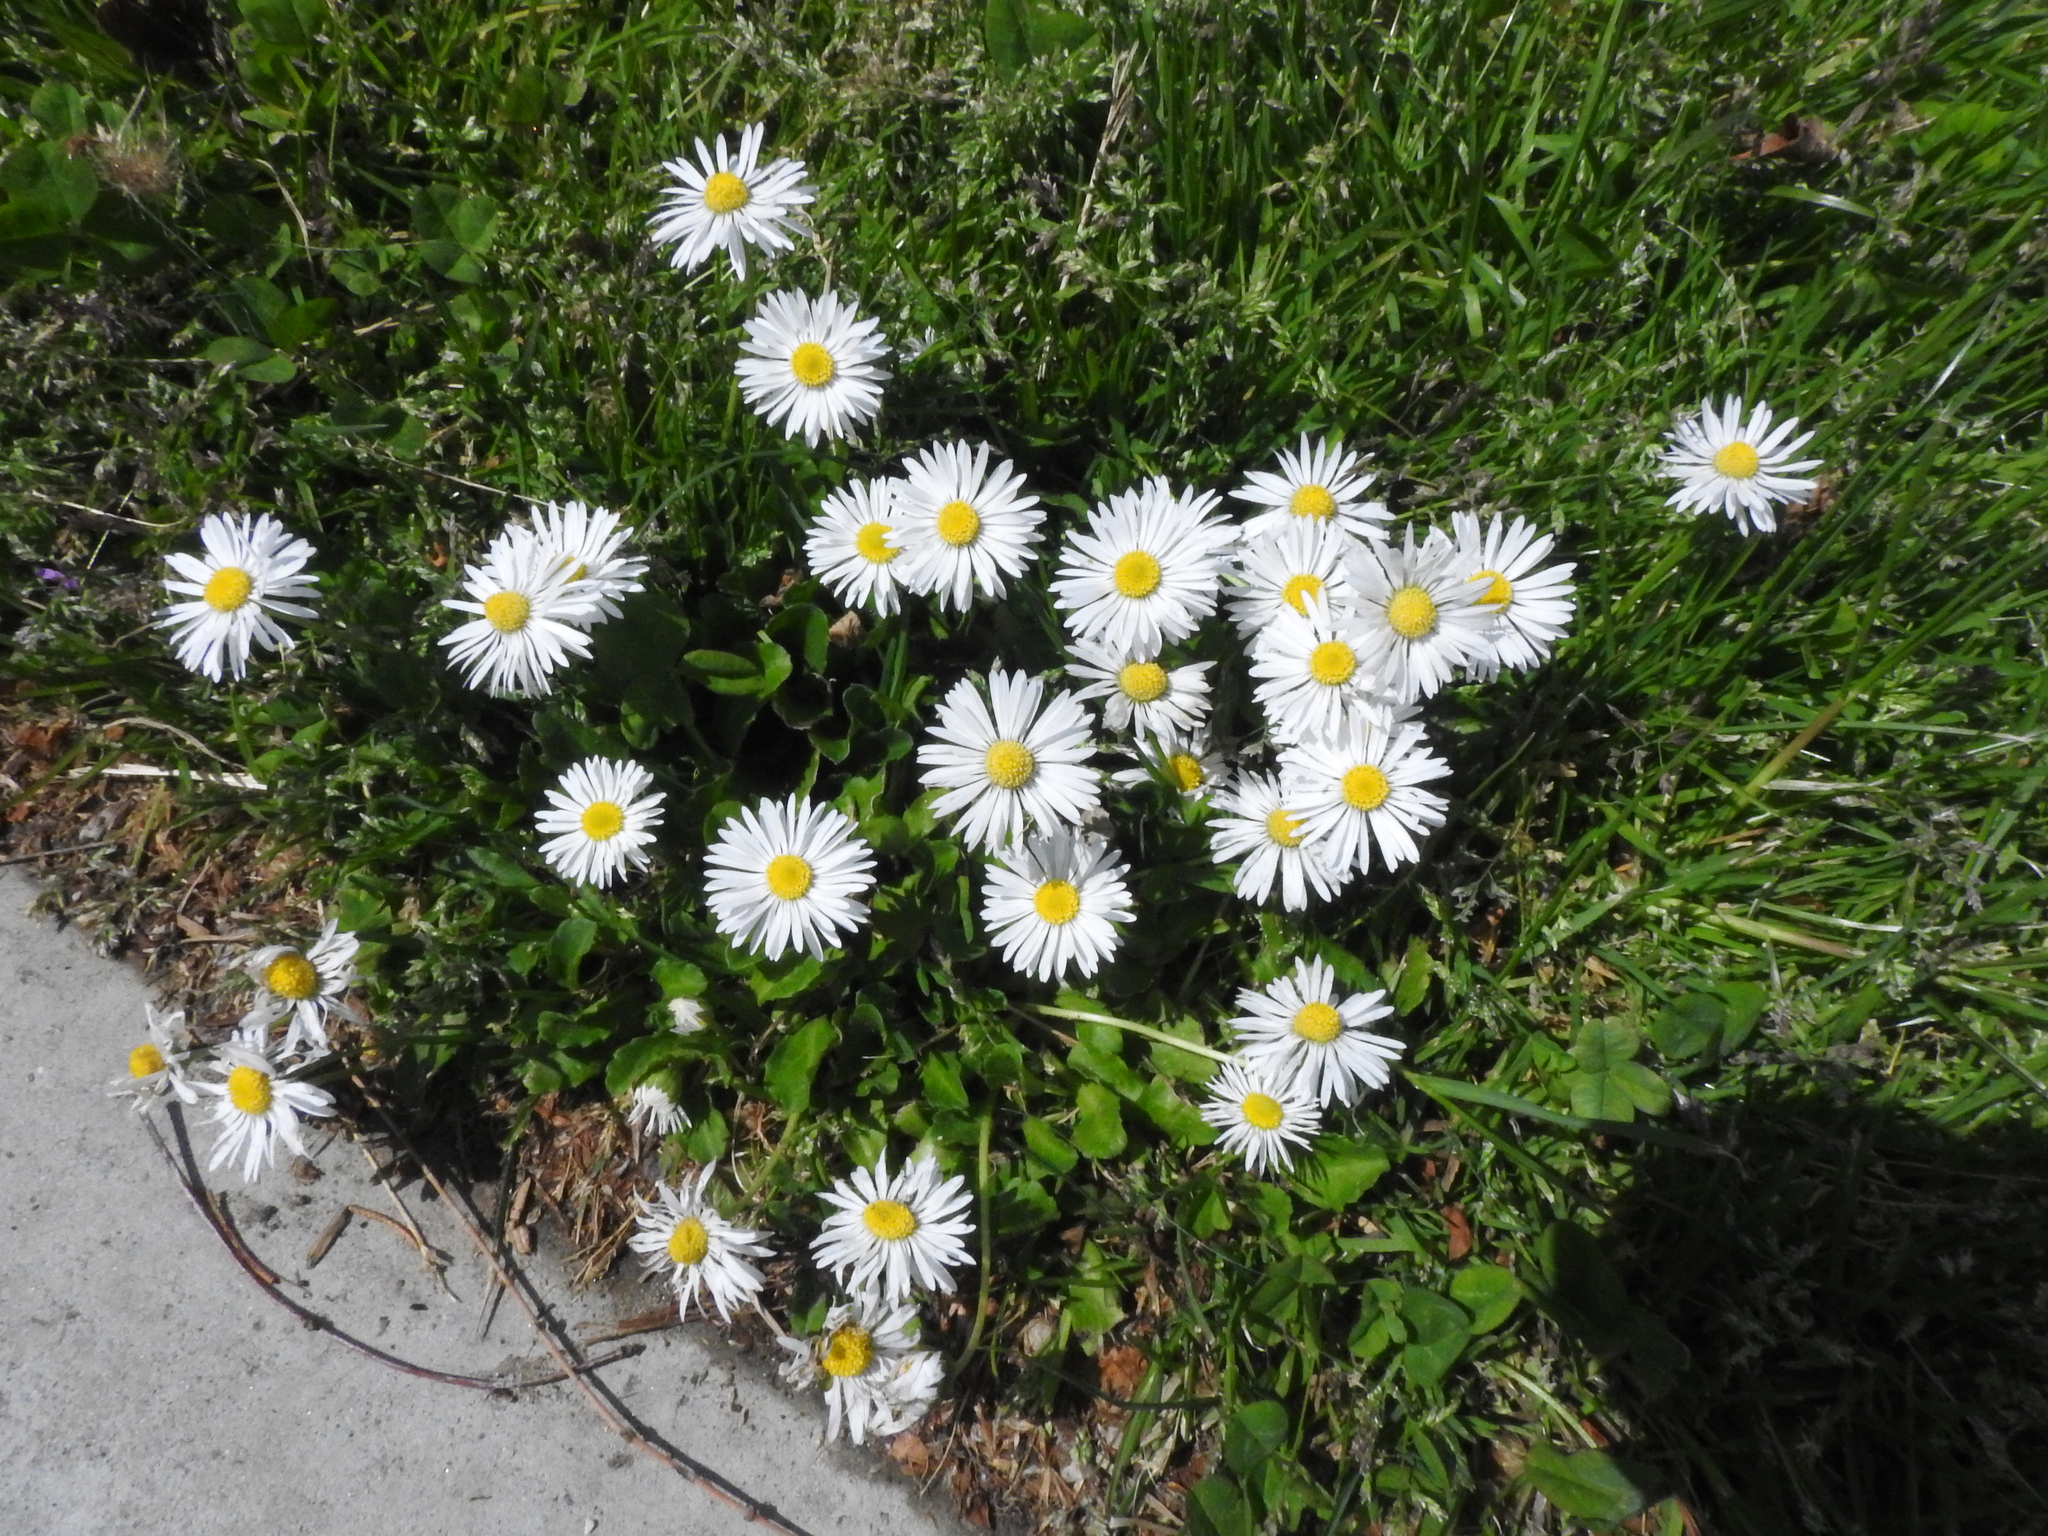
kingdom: Plantae
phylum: Tracheophyta
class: Magnoliopsida
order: Asterales
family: Asteraceae
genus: Bellis
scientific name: Bellis perennis
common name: Lawndaisy
